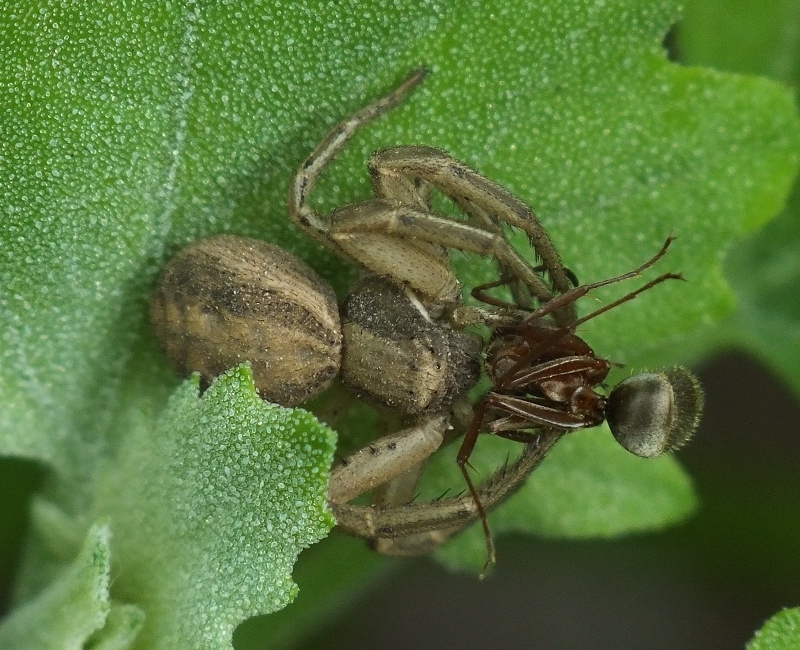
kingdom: Animalia
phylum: Arthropoda
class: Arachnida
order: Araneae
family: Thomisidae
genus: Spiracme
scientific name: Spiracme striatipes
